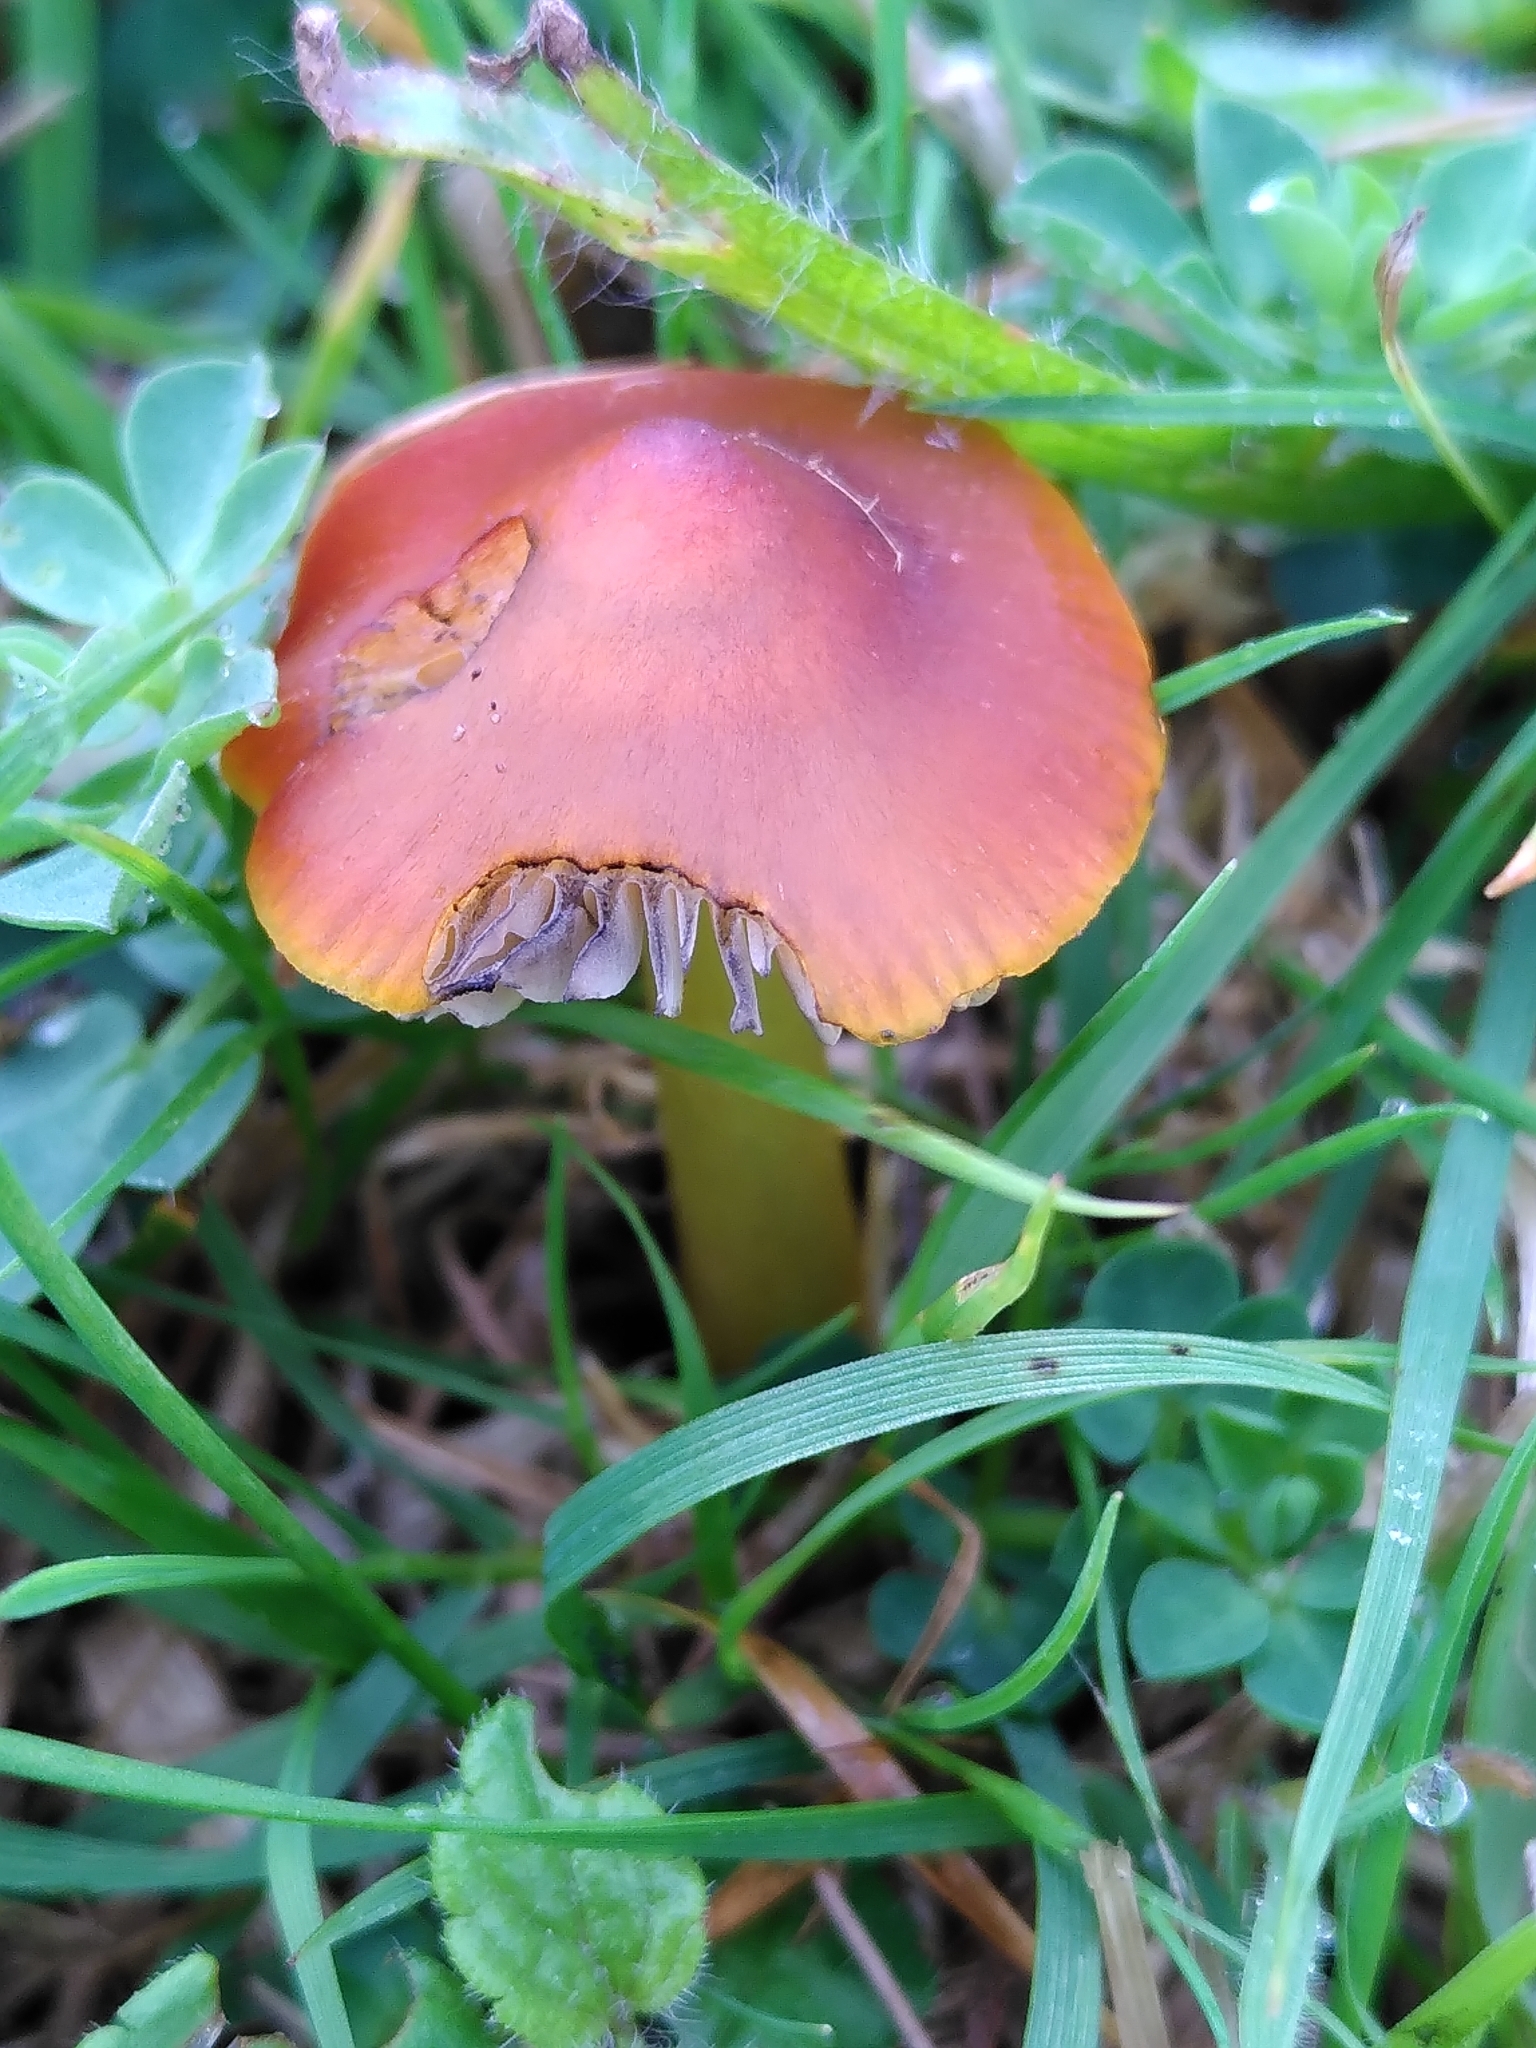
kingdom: Fungi
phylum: Basidiomycota
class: Agaricomycetes
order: Agaricales
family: Hygrophoraceae
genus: Hygrocybe
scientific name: Hygrocybe conica
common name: Blackening wax-cap
